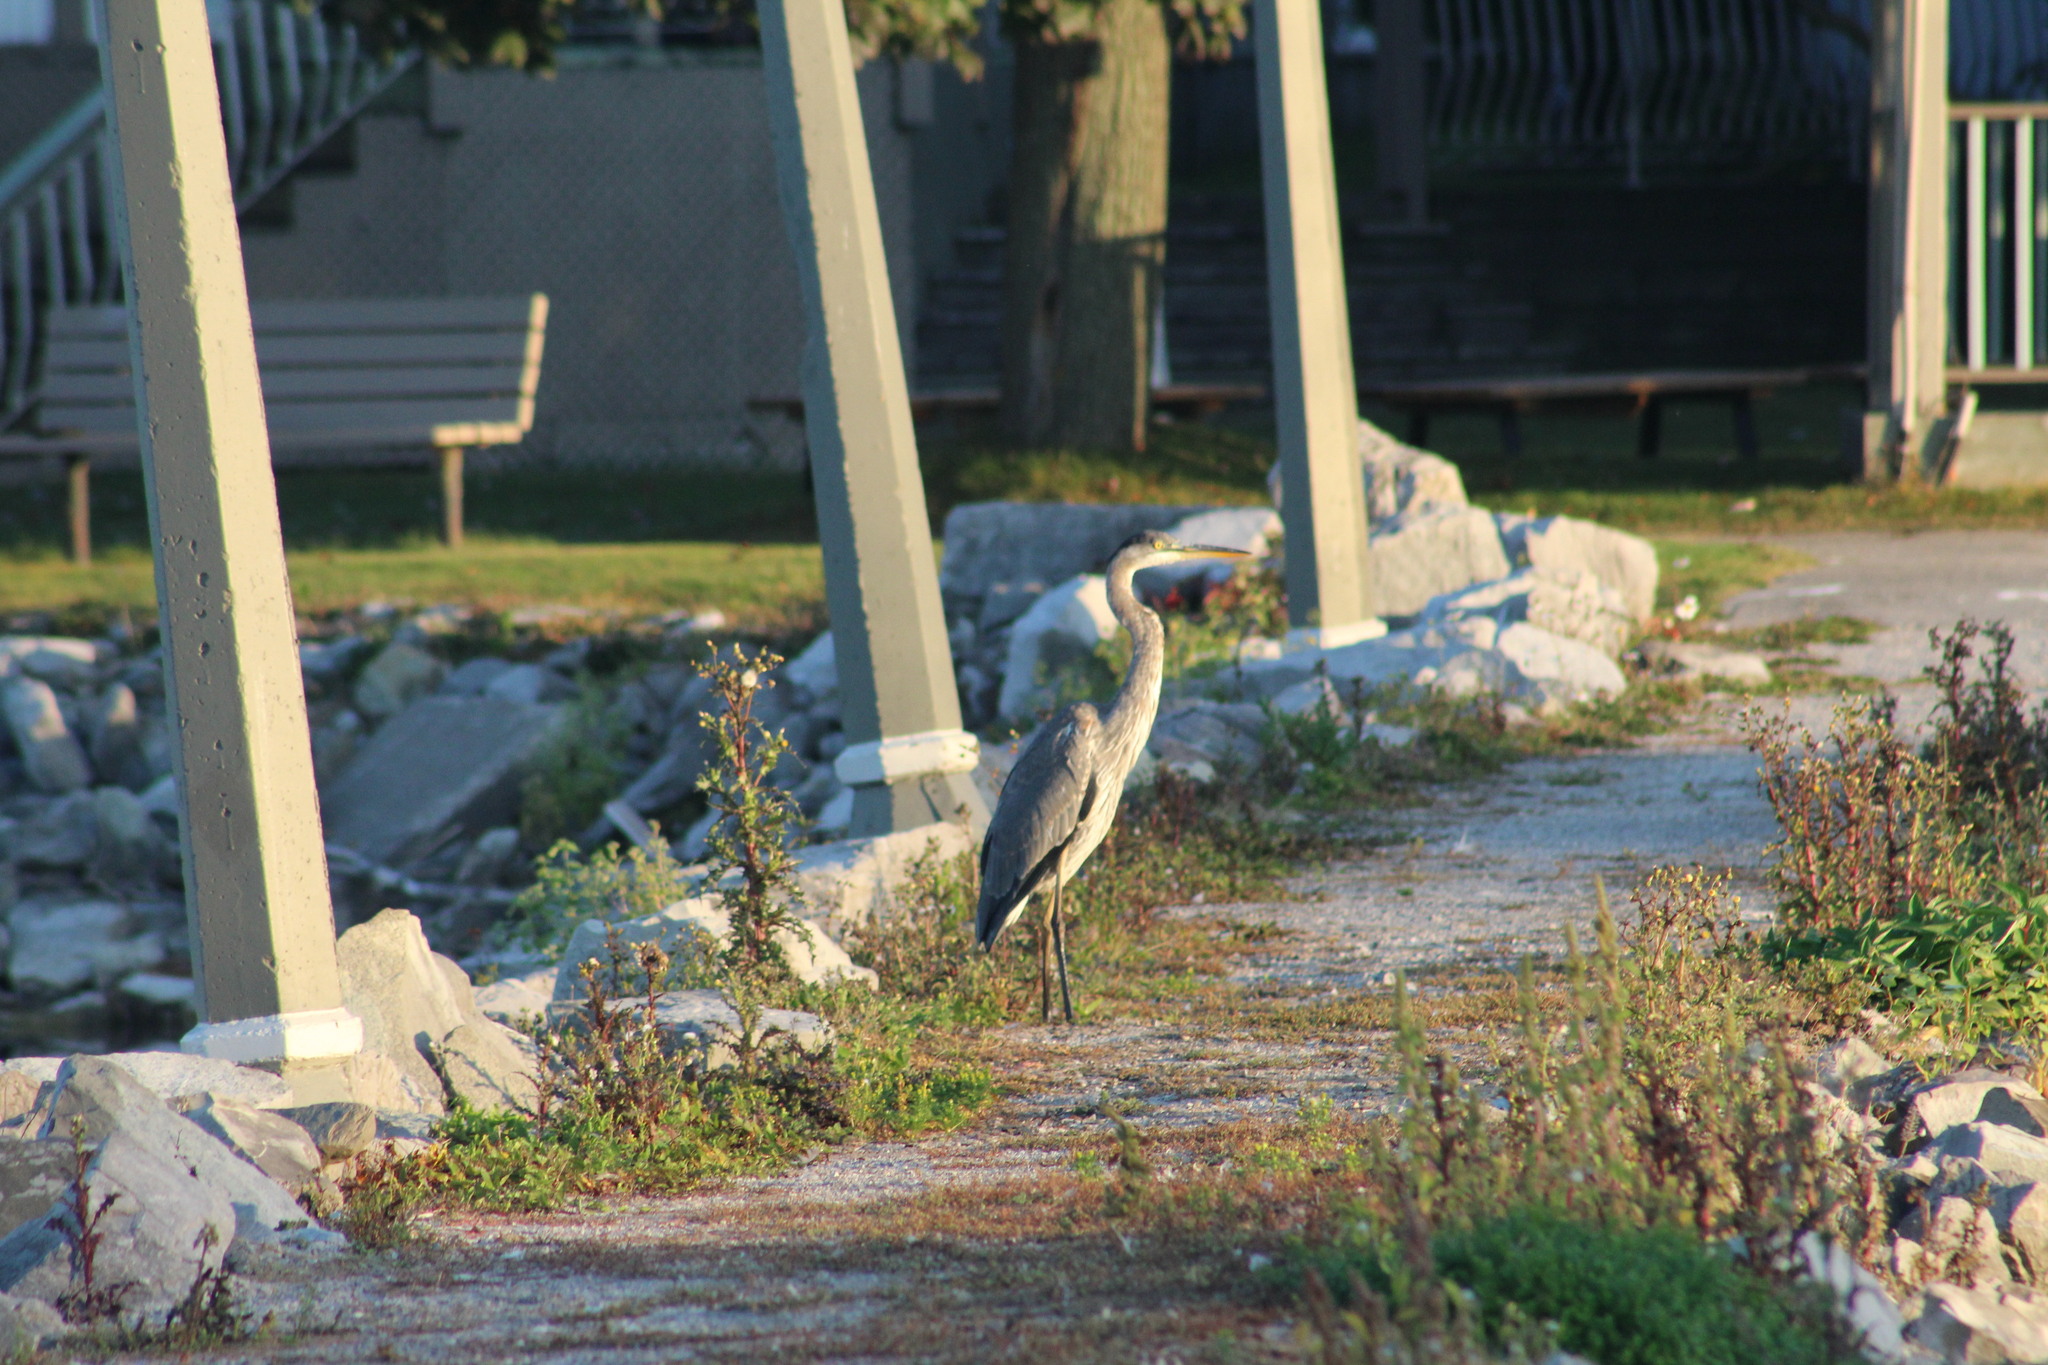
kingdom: Animalia
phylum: Chordata
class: Aves
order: Pelecaniformes
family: Ardeidae
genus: Ardea
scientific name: Ardea herodias
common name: Great blue heron
